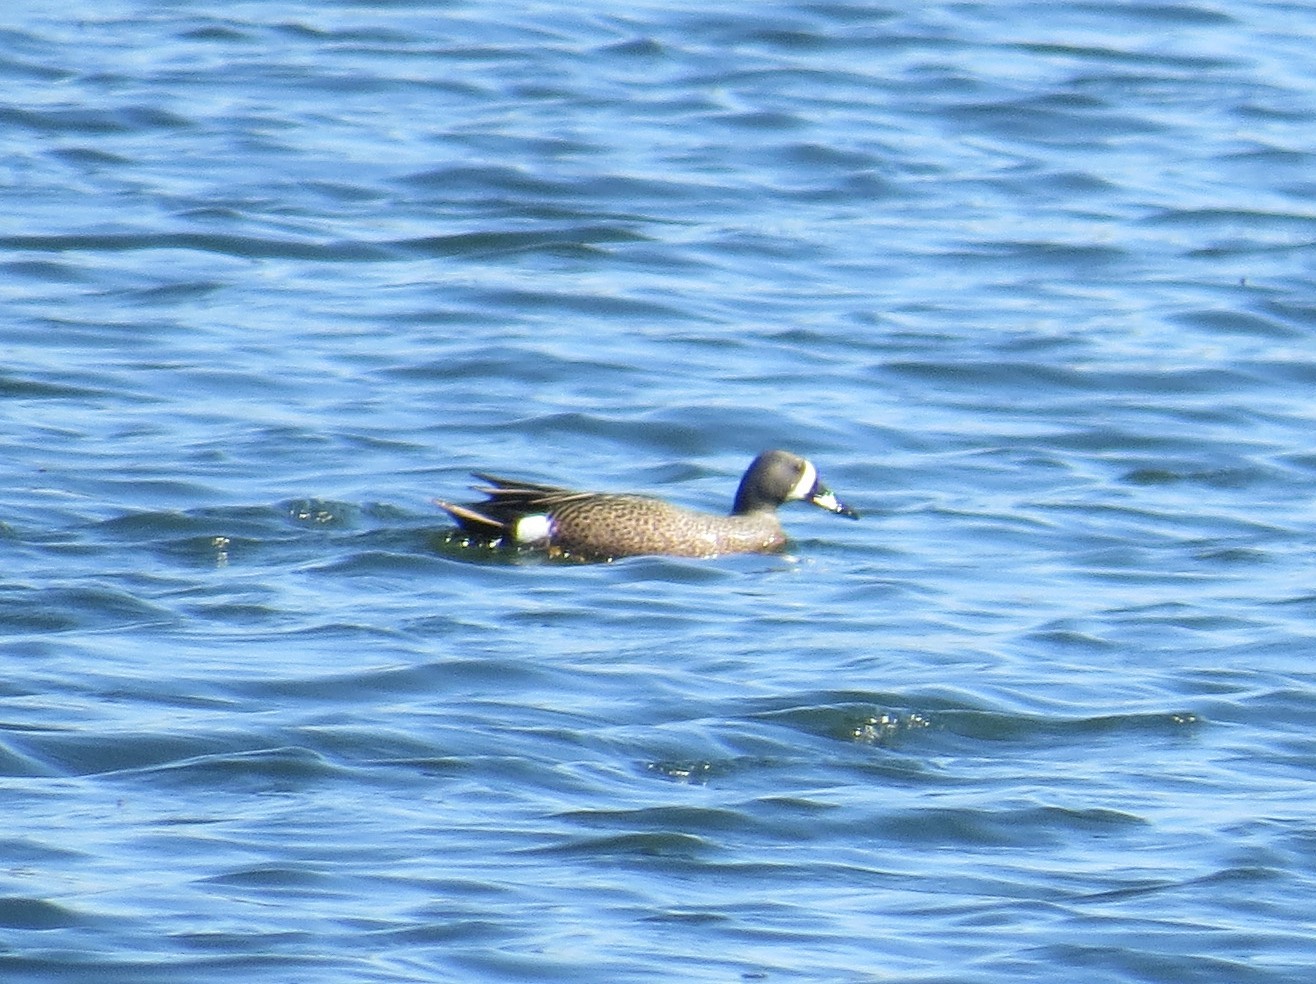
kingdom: Animalia
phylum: Chordata
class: Aves
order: Anseriformes
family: Anatidae
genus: Spatula
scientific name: Spatula discors
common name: Blue-winged teal
